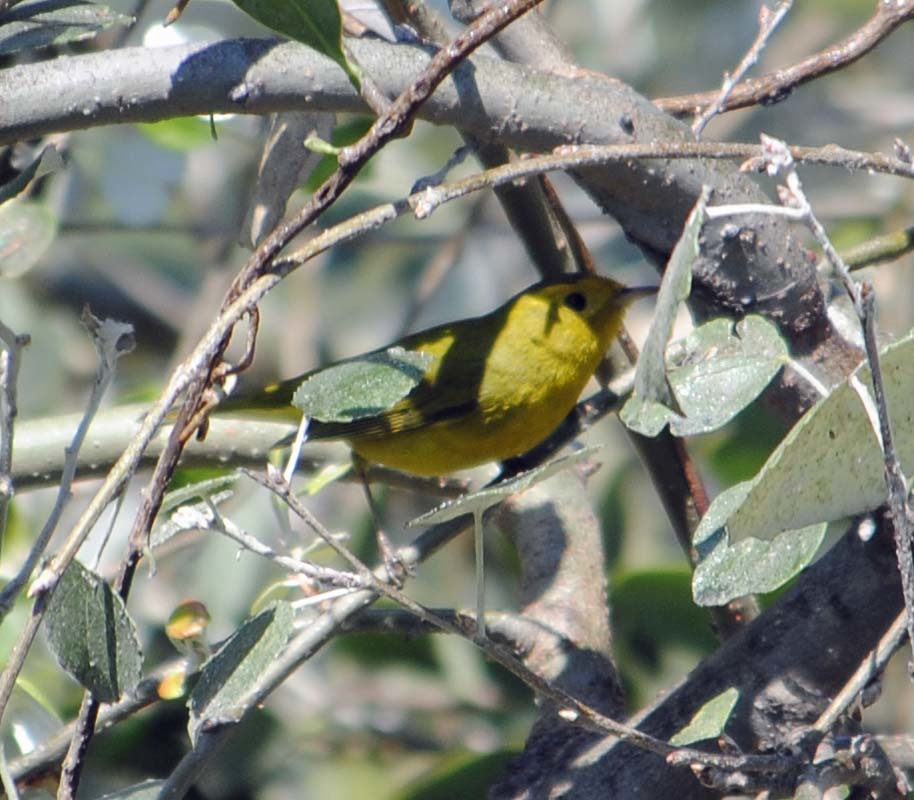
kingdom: Animalia
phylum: Chordata
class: Aves
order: Passeriformes
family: Parulidae
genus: Cardellina
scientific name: Cardellina pusilla
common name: Wilson's warbler
